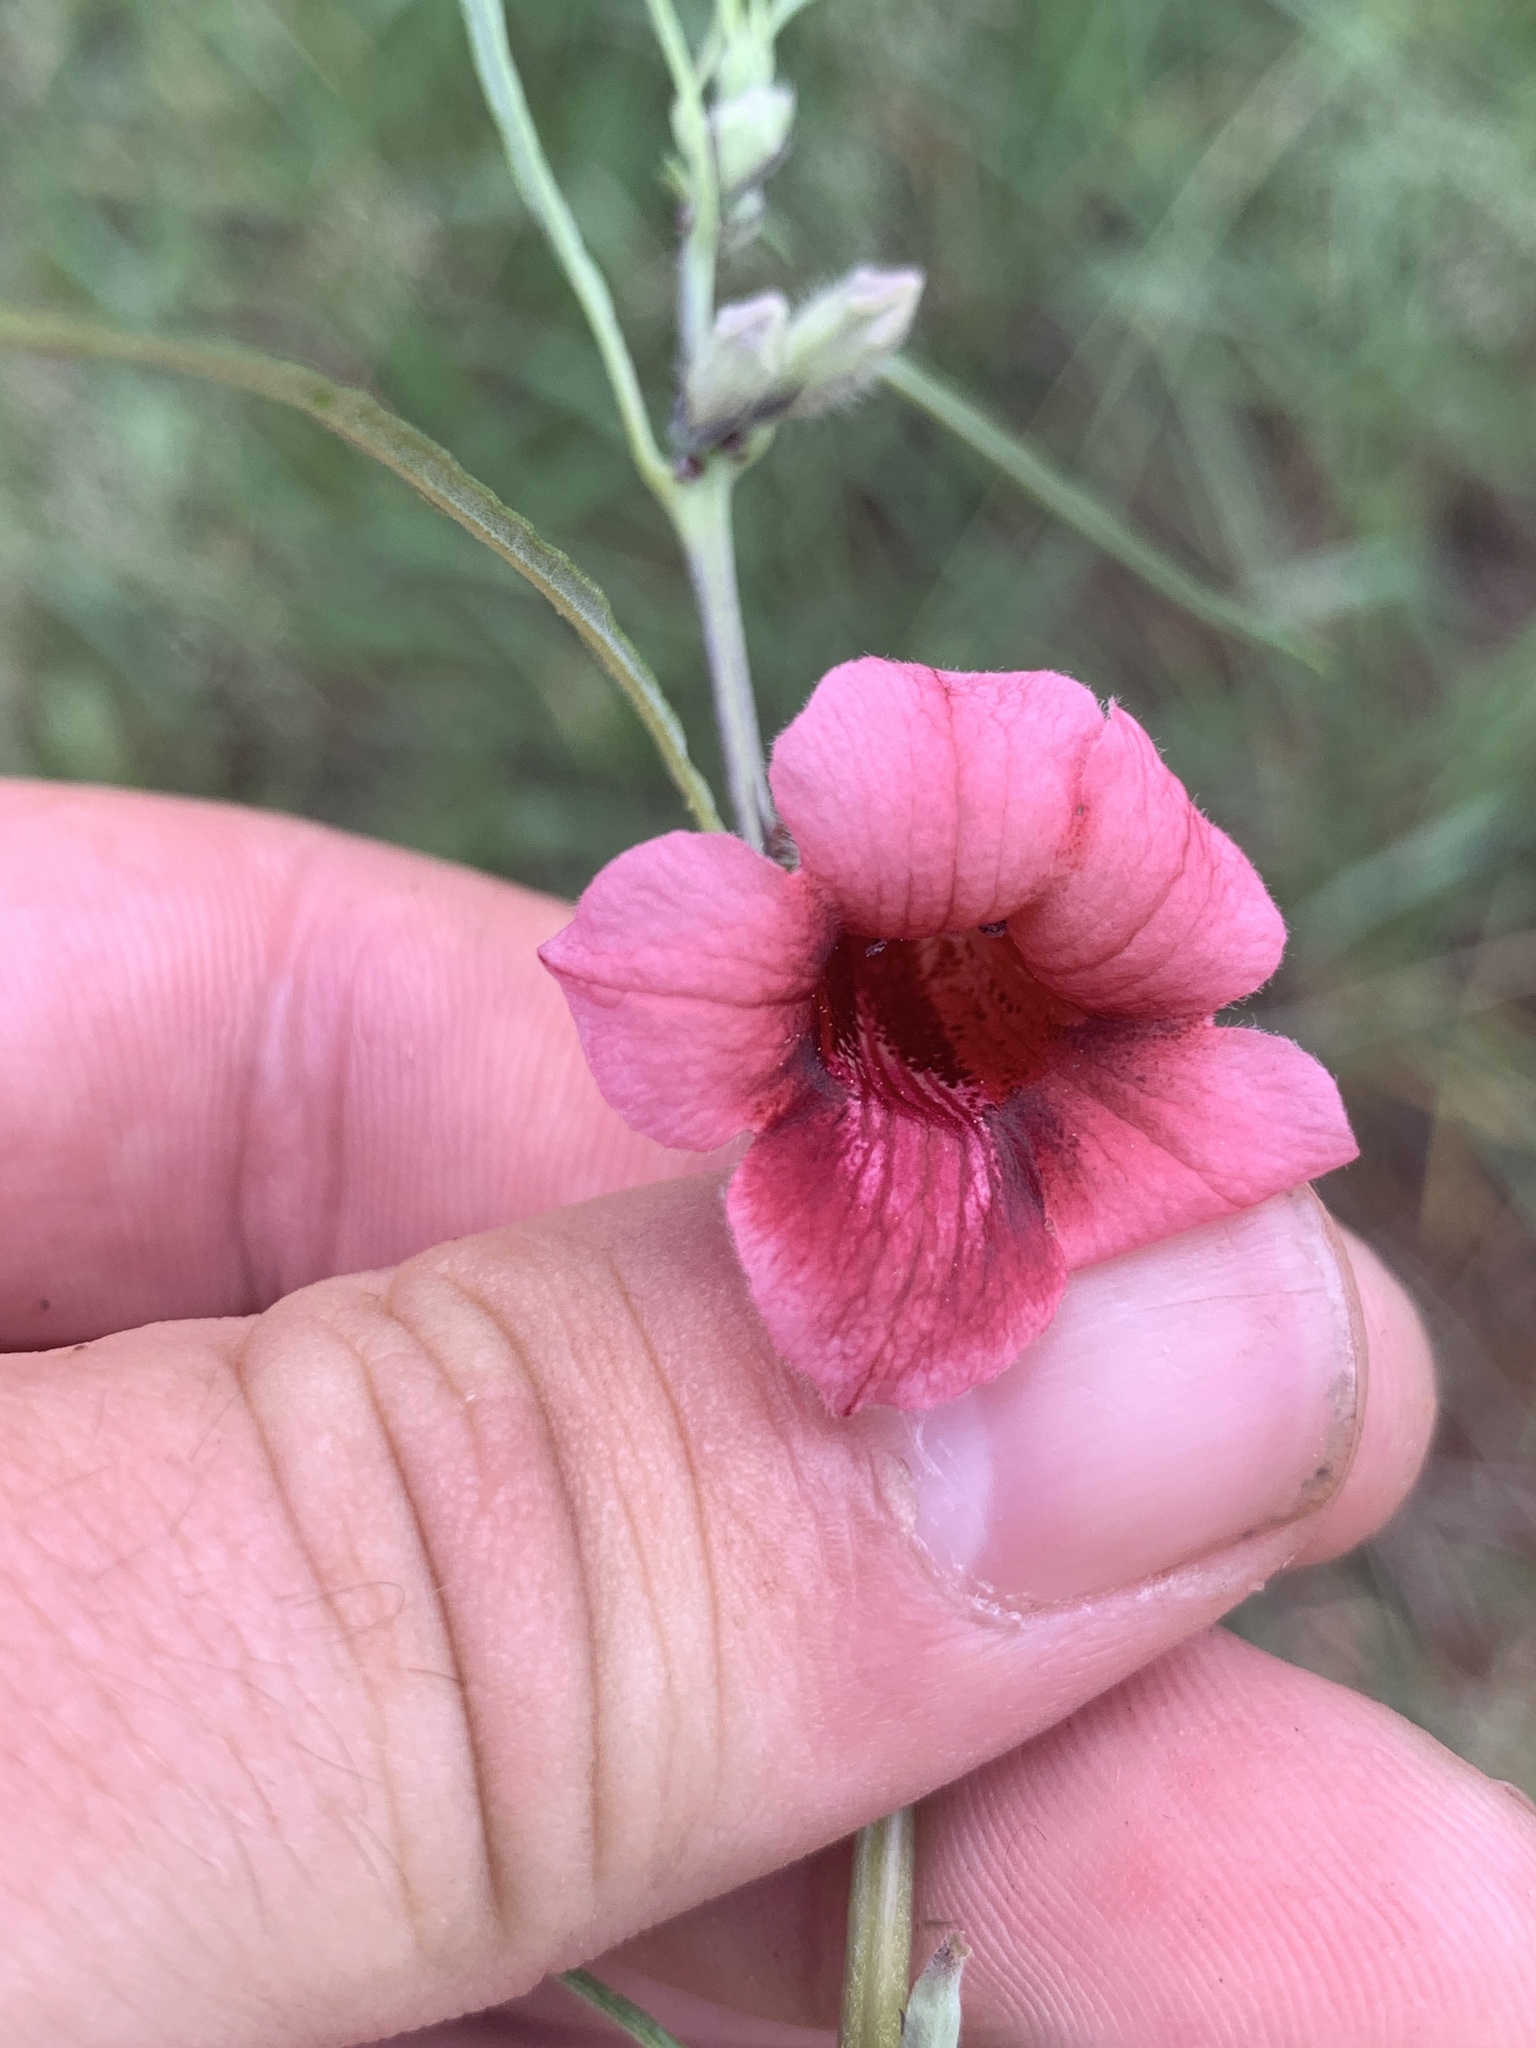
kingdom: Plantae
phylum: Tracheophyta
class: Magnoliopsida
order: Lamiales
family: Pedaliaceae
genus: Sesamum
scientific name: Sesamum triphyllum
